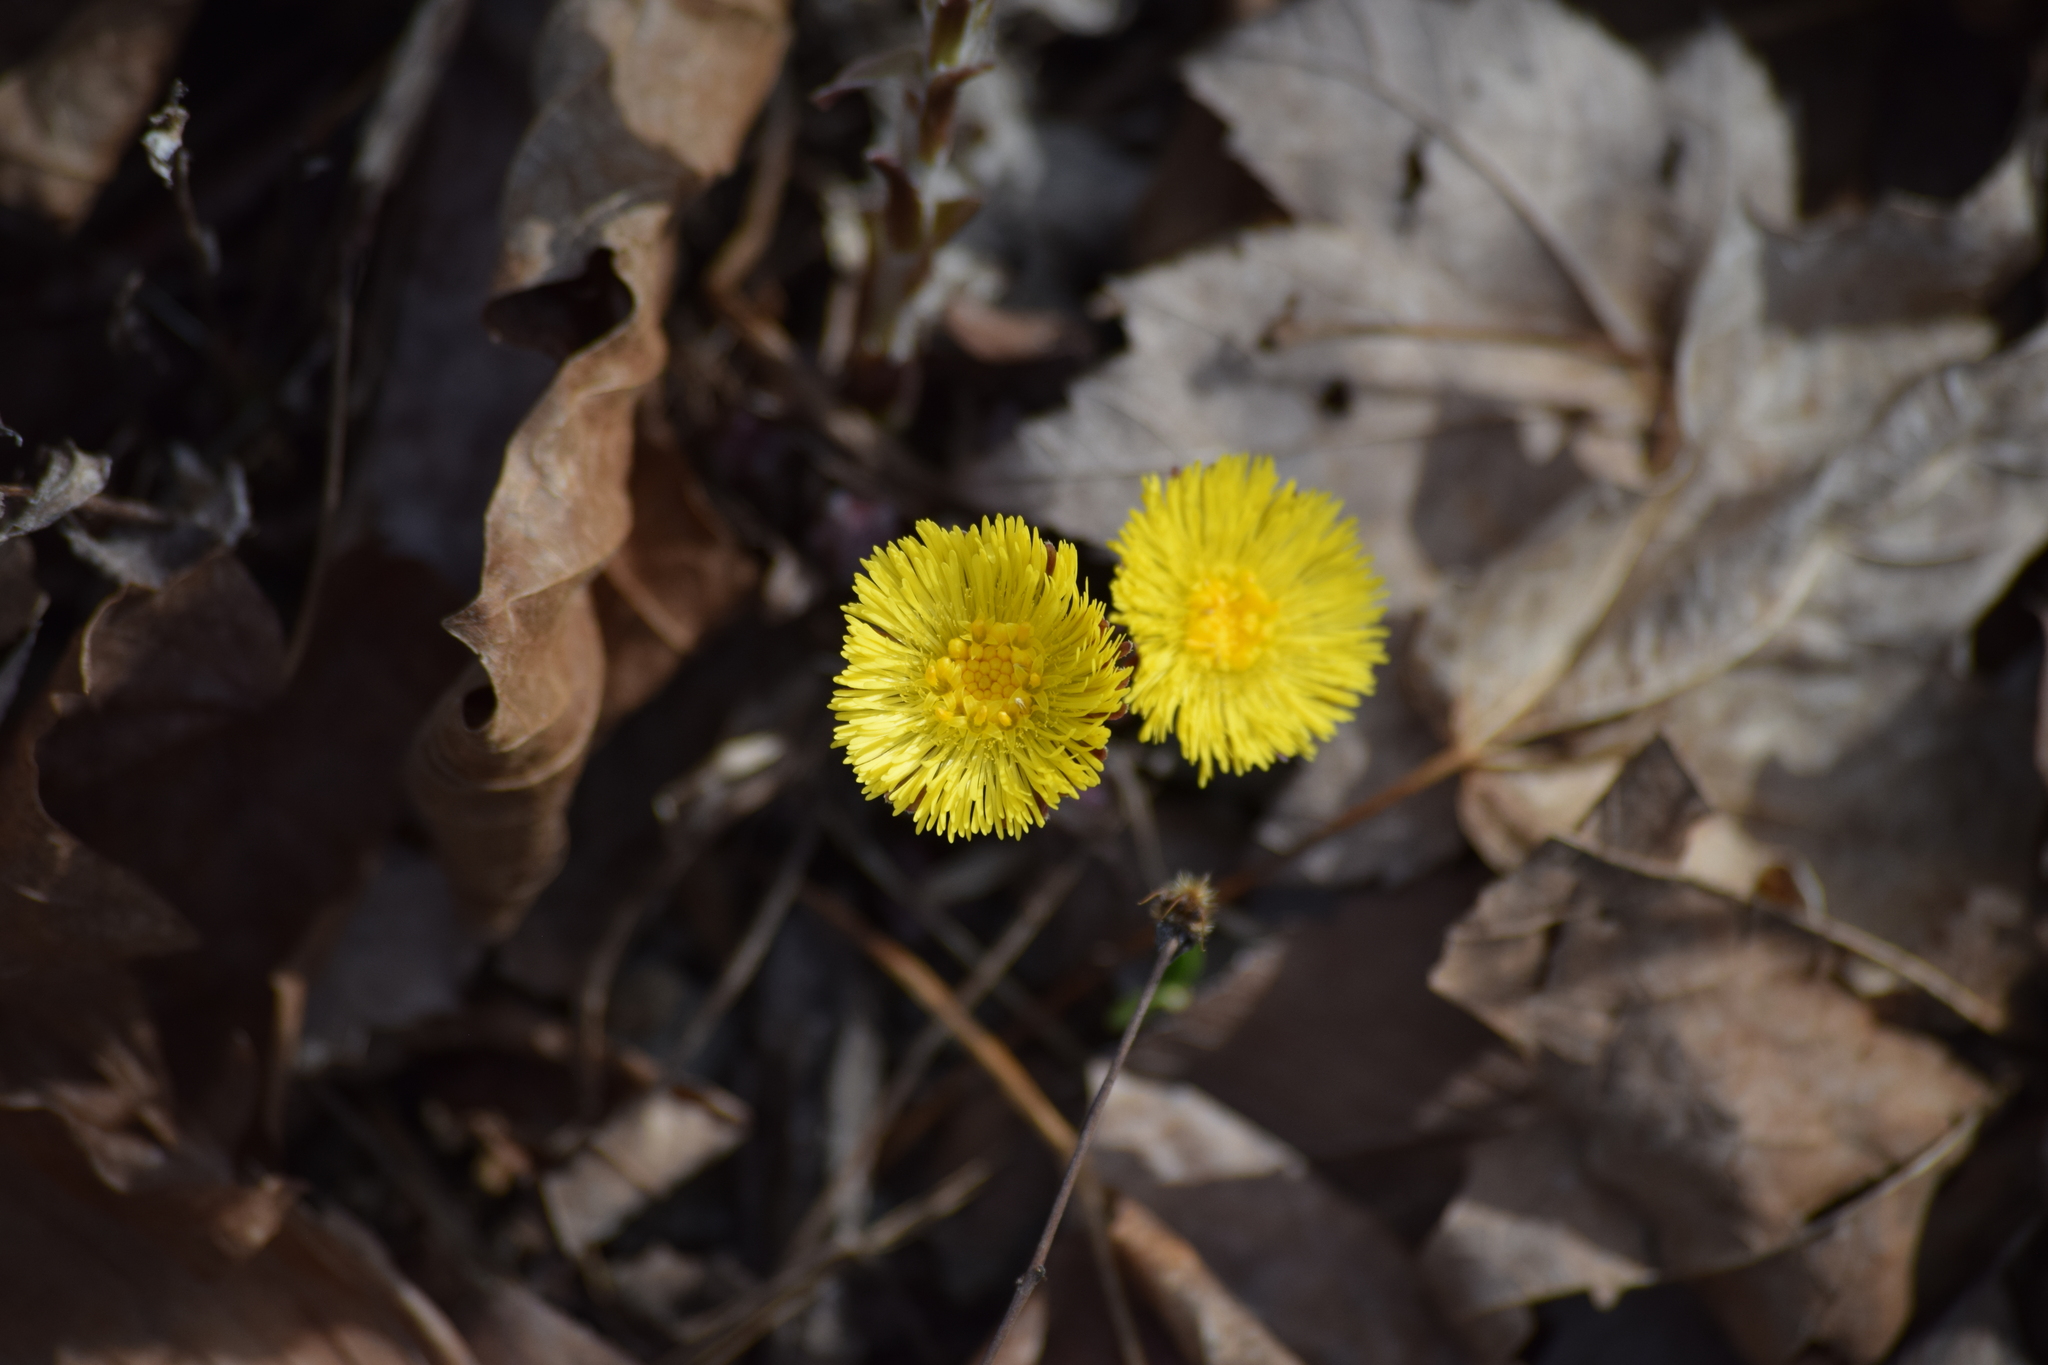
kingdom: Plantae
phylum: Tracheophyta
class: Magnoliopsida
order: Asterales
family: Asteraceae
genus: Tussilago
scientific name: Tussilago farfara
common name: Coltsfoot
